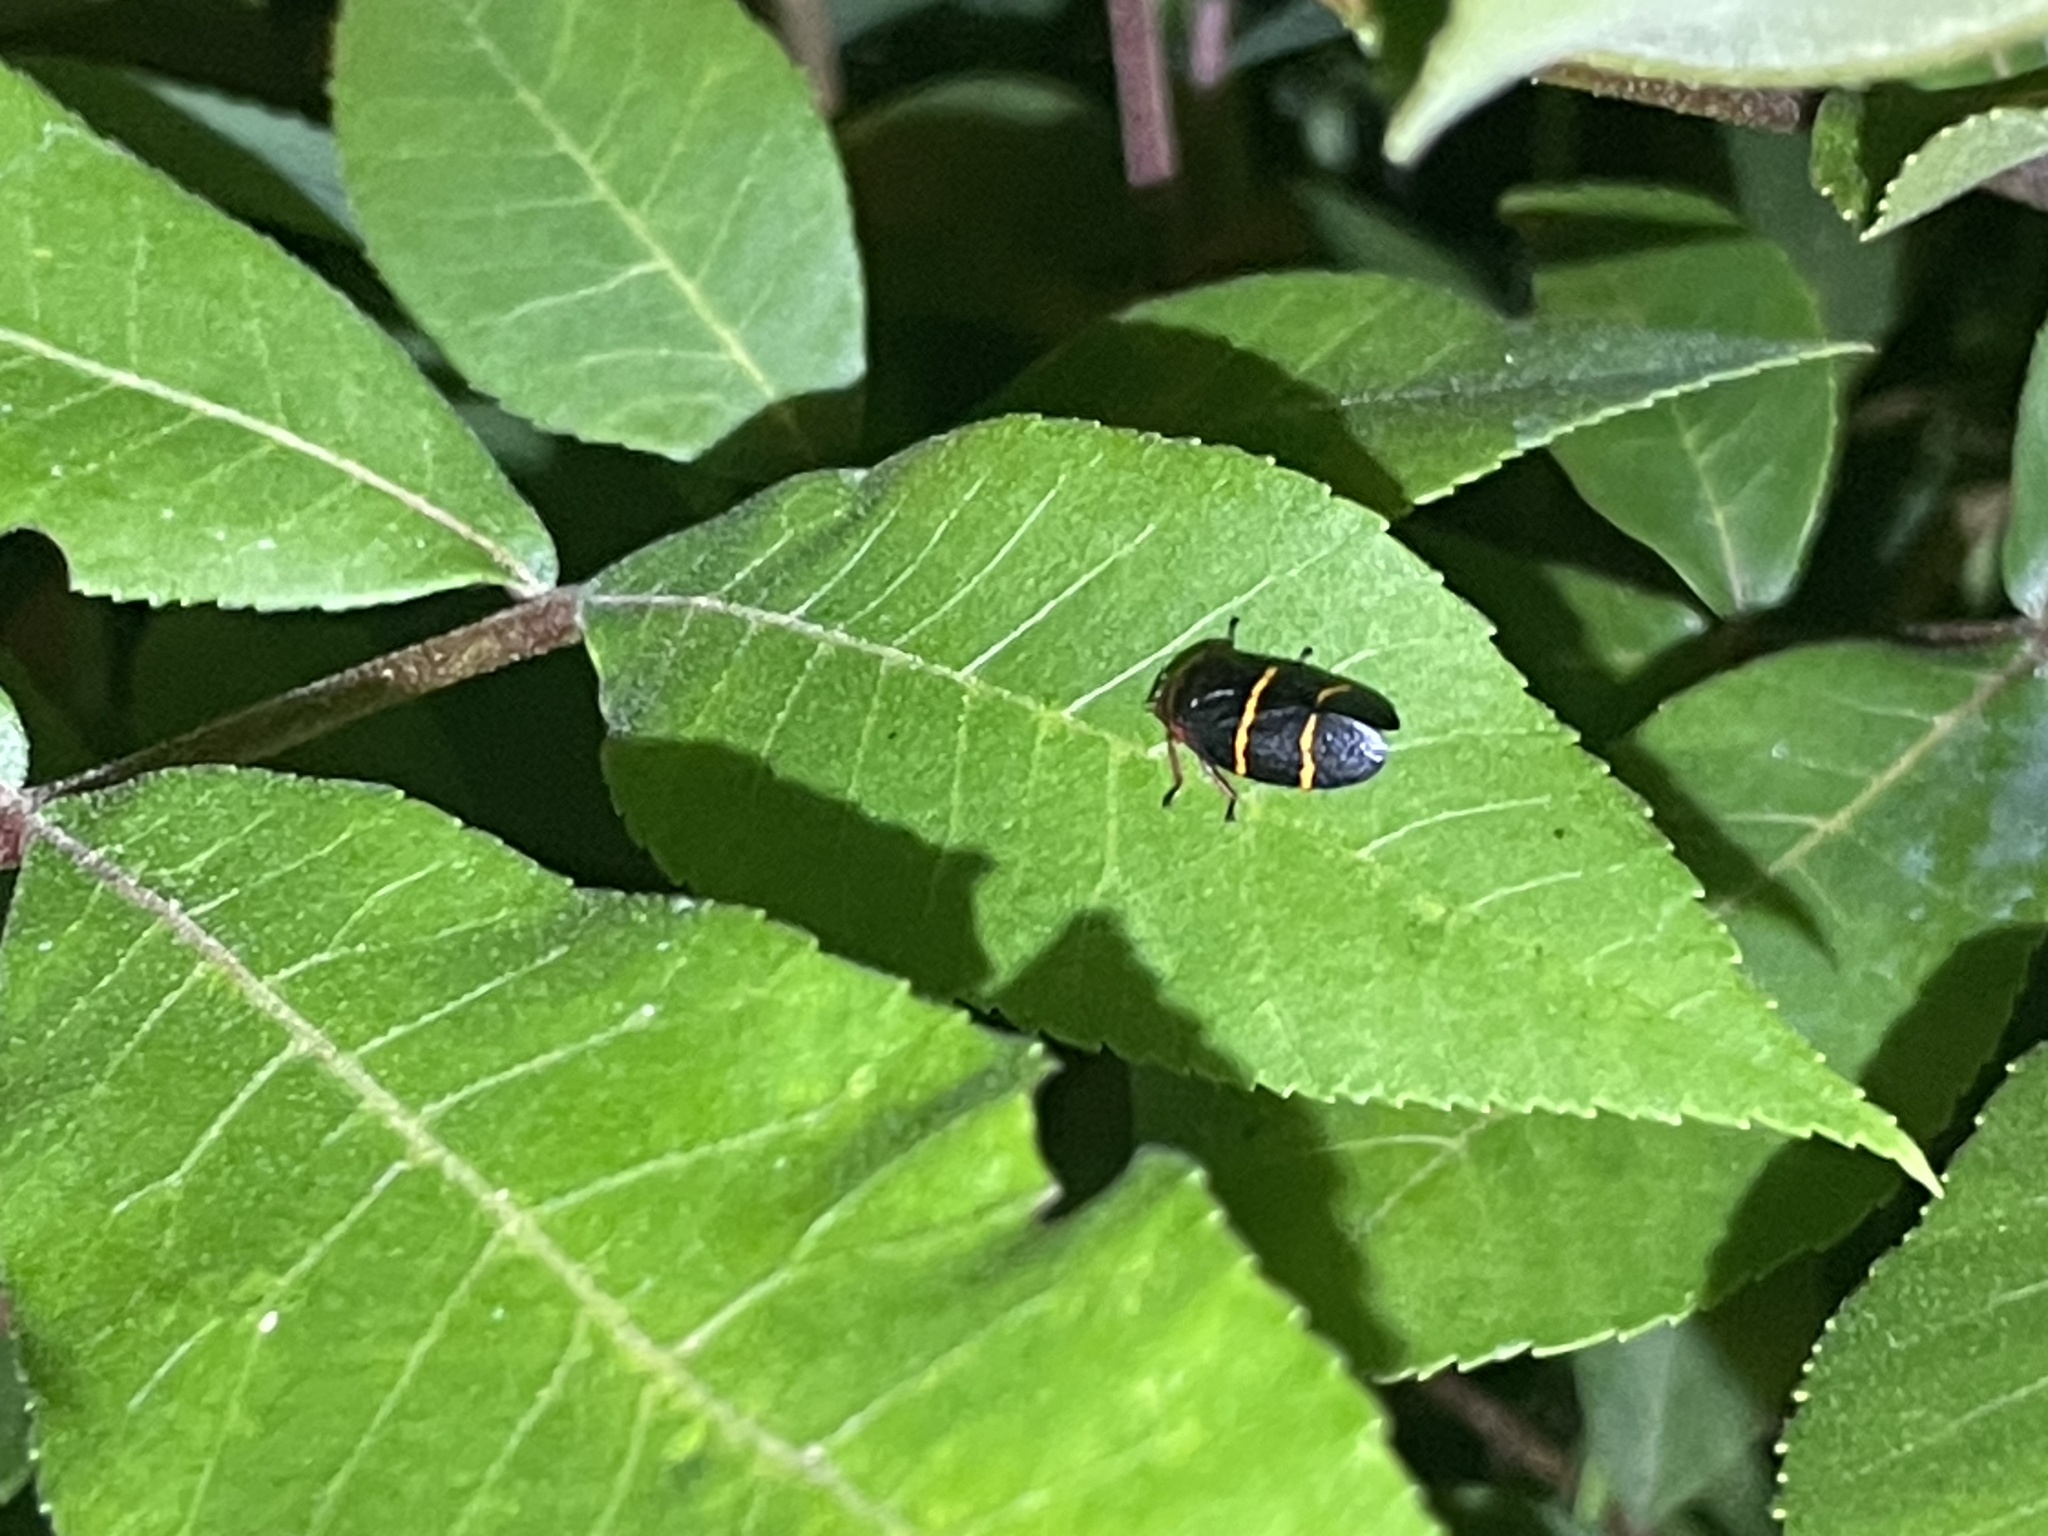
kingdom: Animalia
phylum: Arthropoda
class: Insecta
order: Hemiptera
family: Cercopidae
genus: Prosapia
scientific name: Prosapia bicincta
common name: Twolined spittlebug
